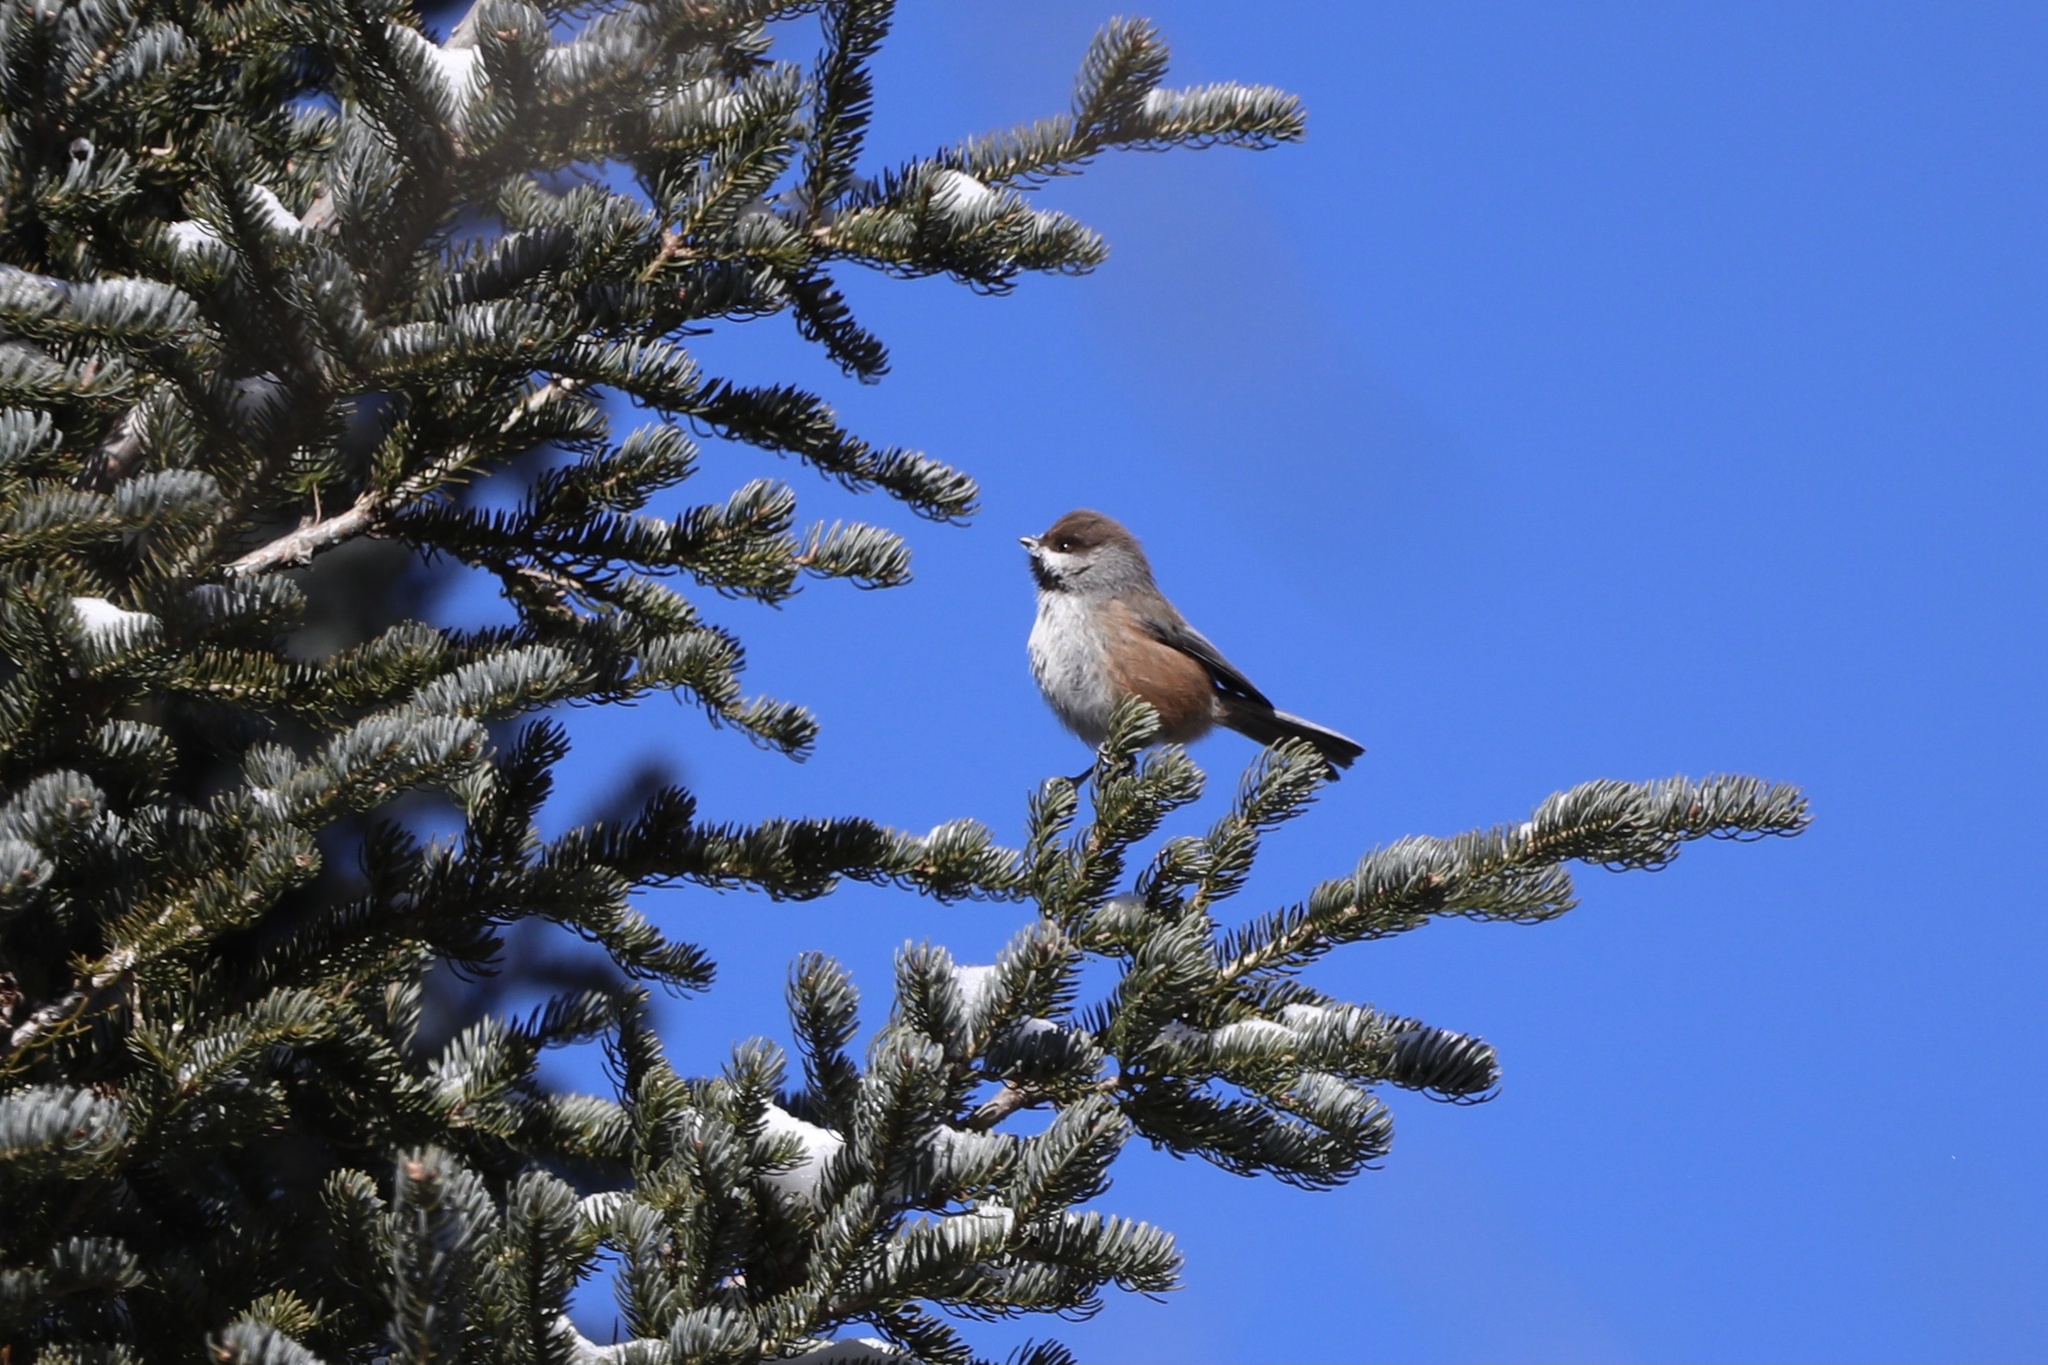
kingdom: Animalia
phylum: Chordata
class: Aves
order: Passeriformes
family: Paridae
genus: Poecile
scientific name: Poecile hudsonicus
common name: Boreal chickadee
